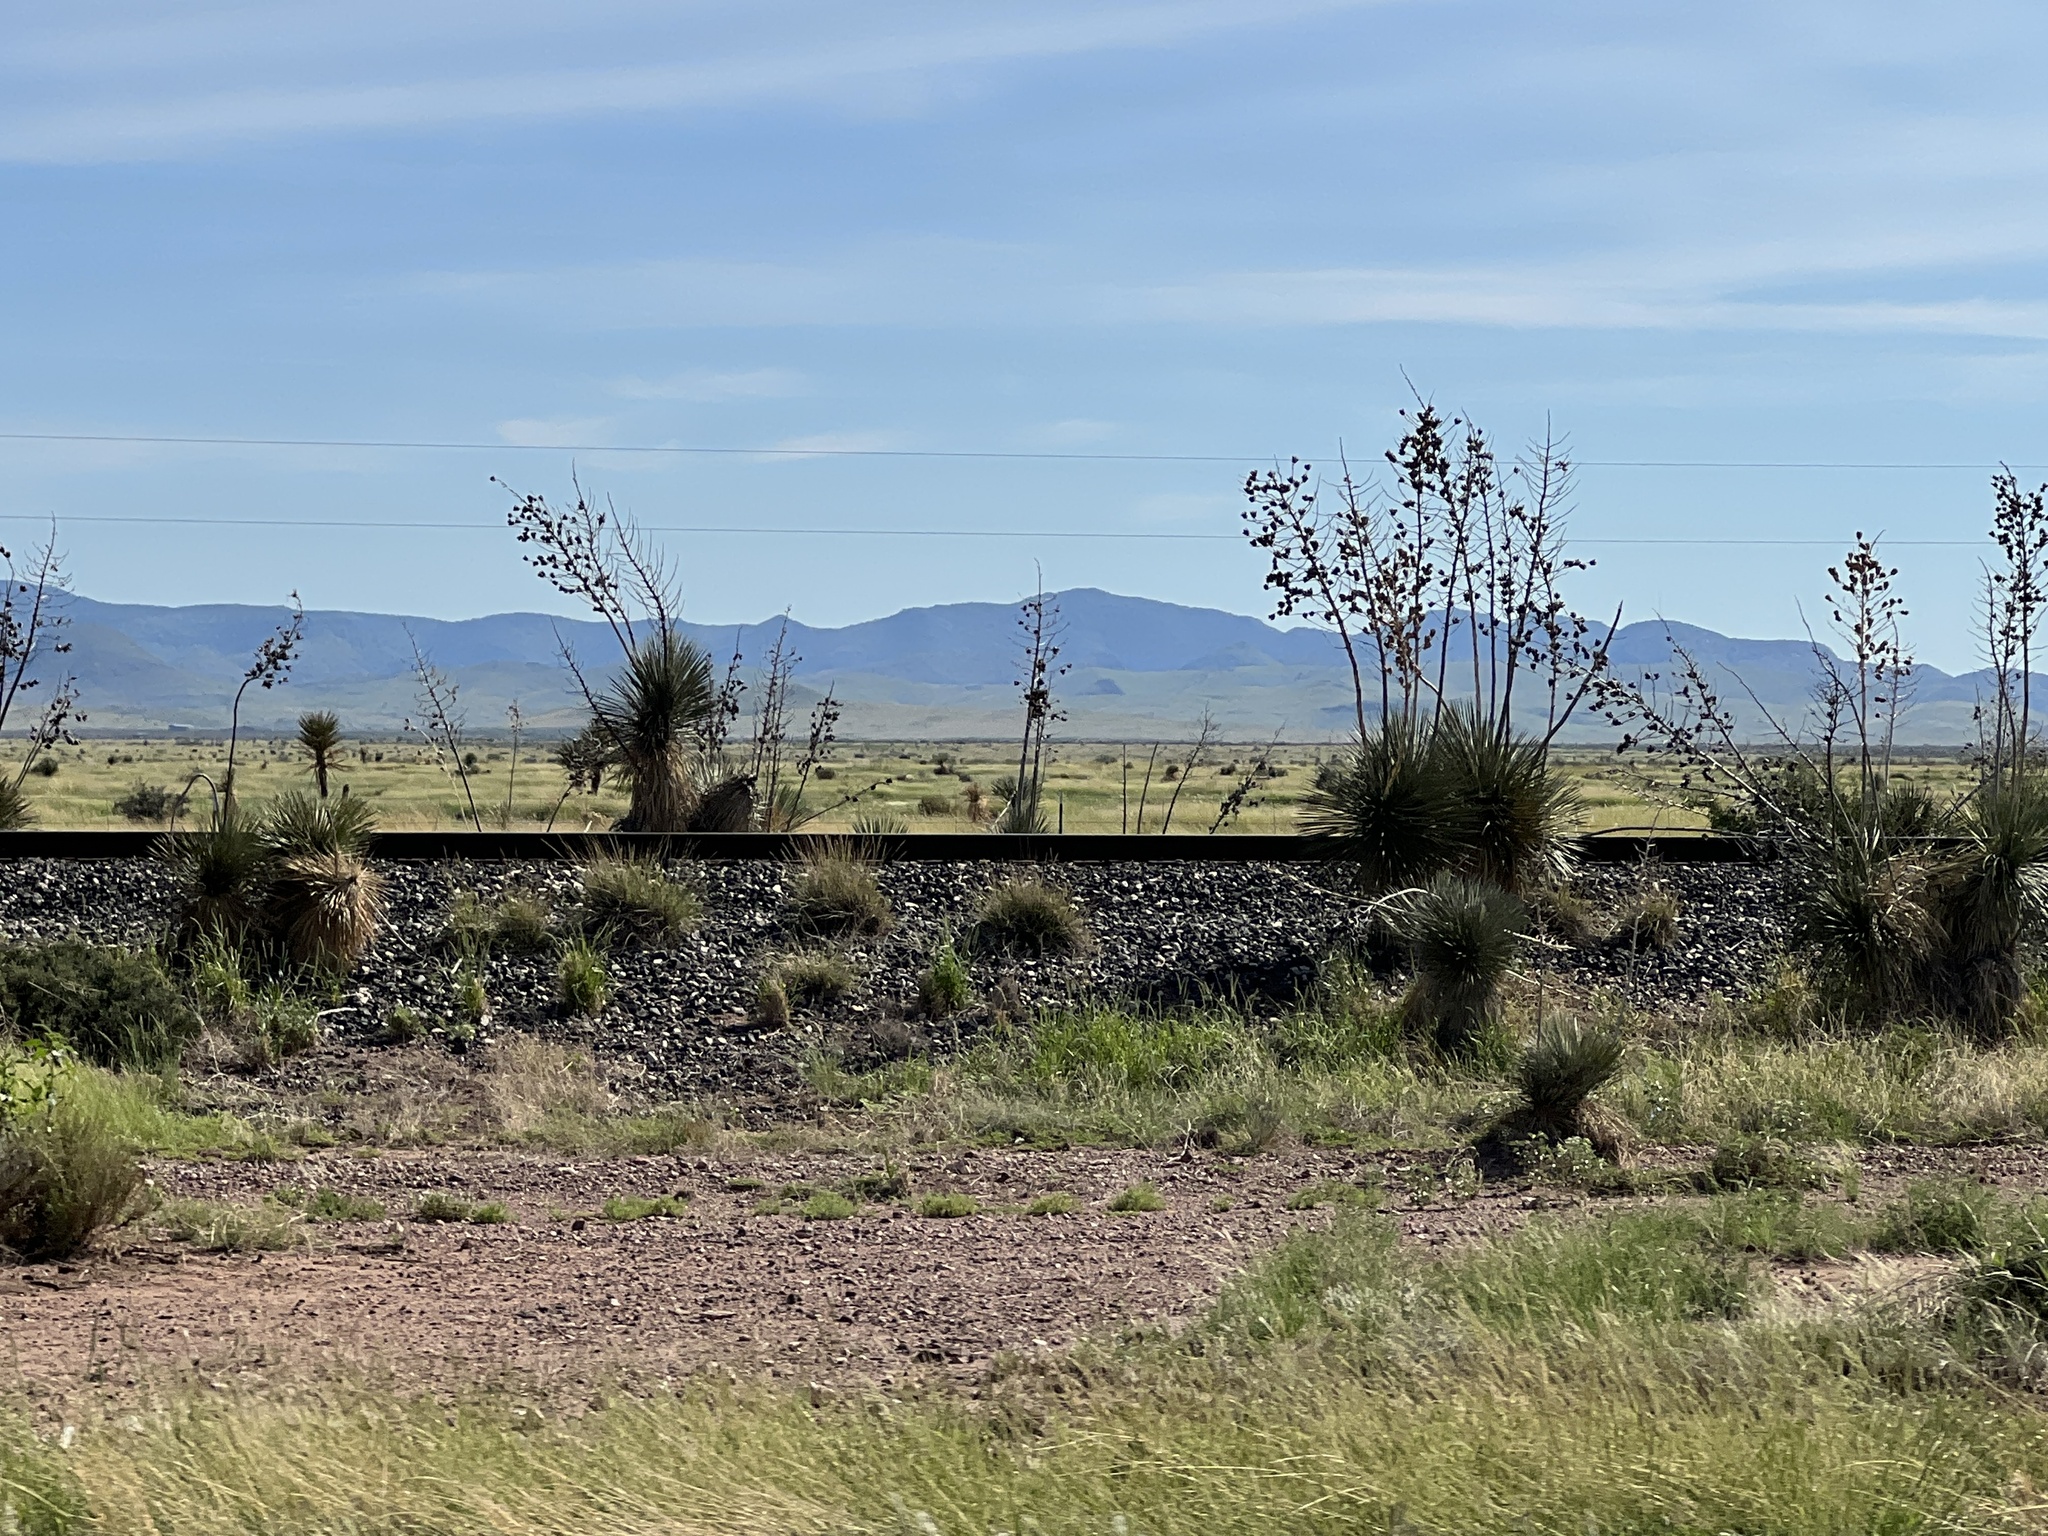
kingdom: Plantae
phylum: Tracheophyta
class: Liliopsida
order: Asparagales
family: Asparagaceae
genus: Yucca
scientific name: Yucca elata
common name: Palmella
